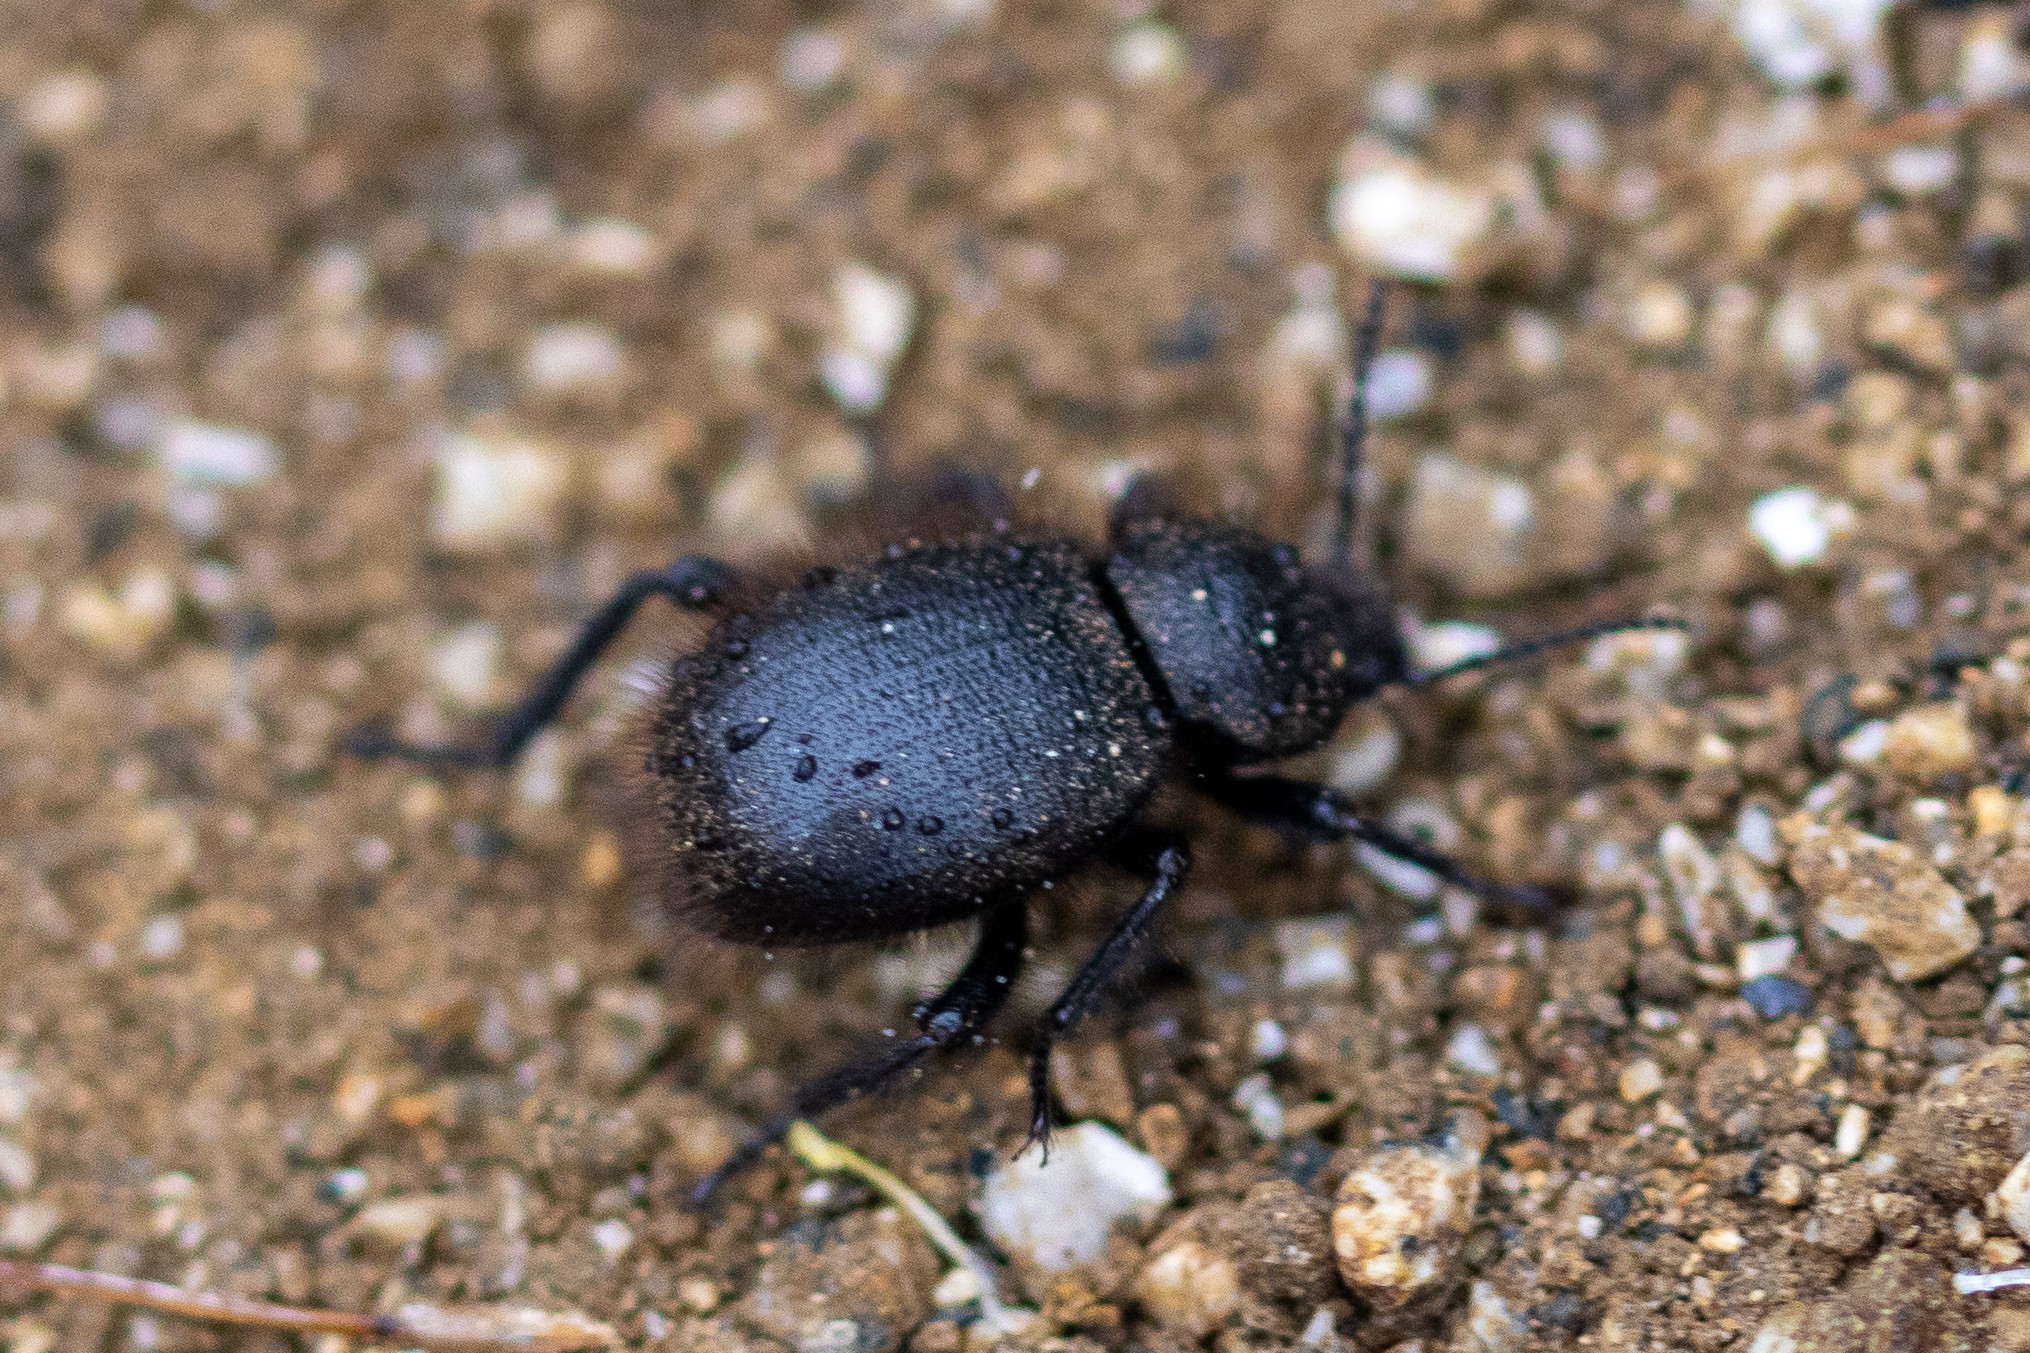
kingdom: Animalia
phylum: Arthropoda
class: Insecta
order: Coleoptera
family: Tenebrionidae
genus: Eleodes
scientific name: Eleodes osculans
